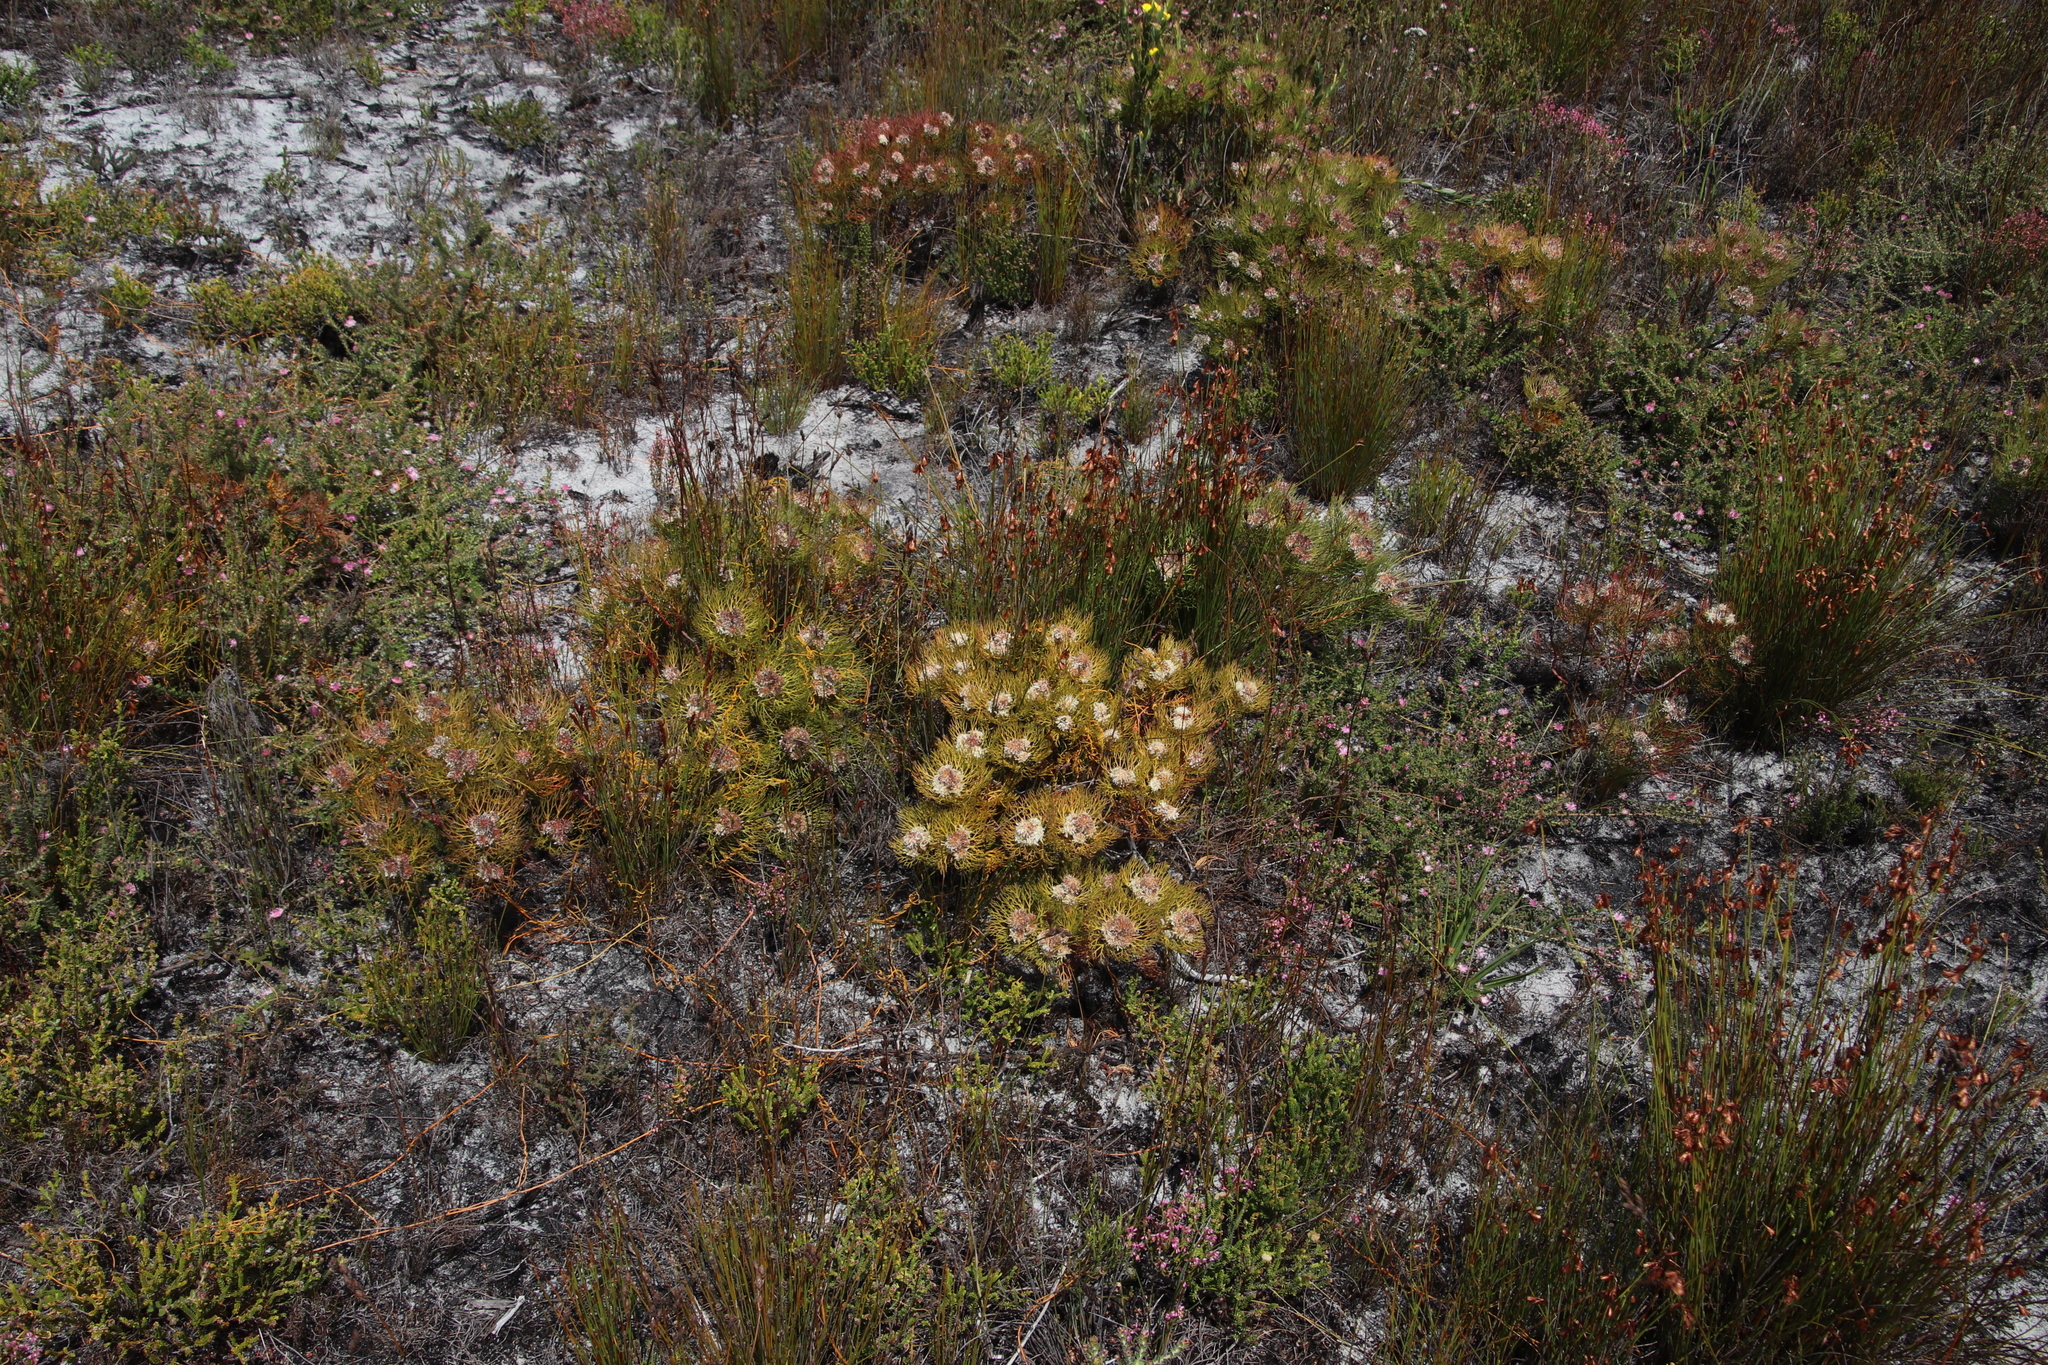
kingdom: Plantae
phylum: Tracheophyta
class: Magnoliopsida
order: Proteales
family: Proteaceae
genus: Serruria
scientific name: Serruria glomerata
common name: Cluster spiderhead
